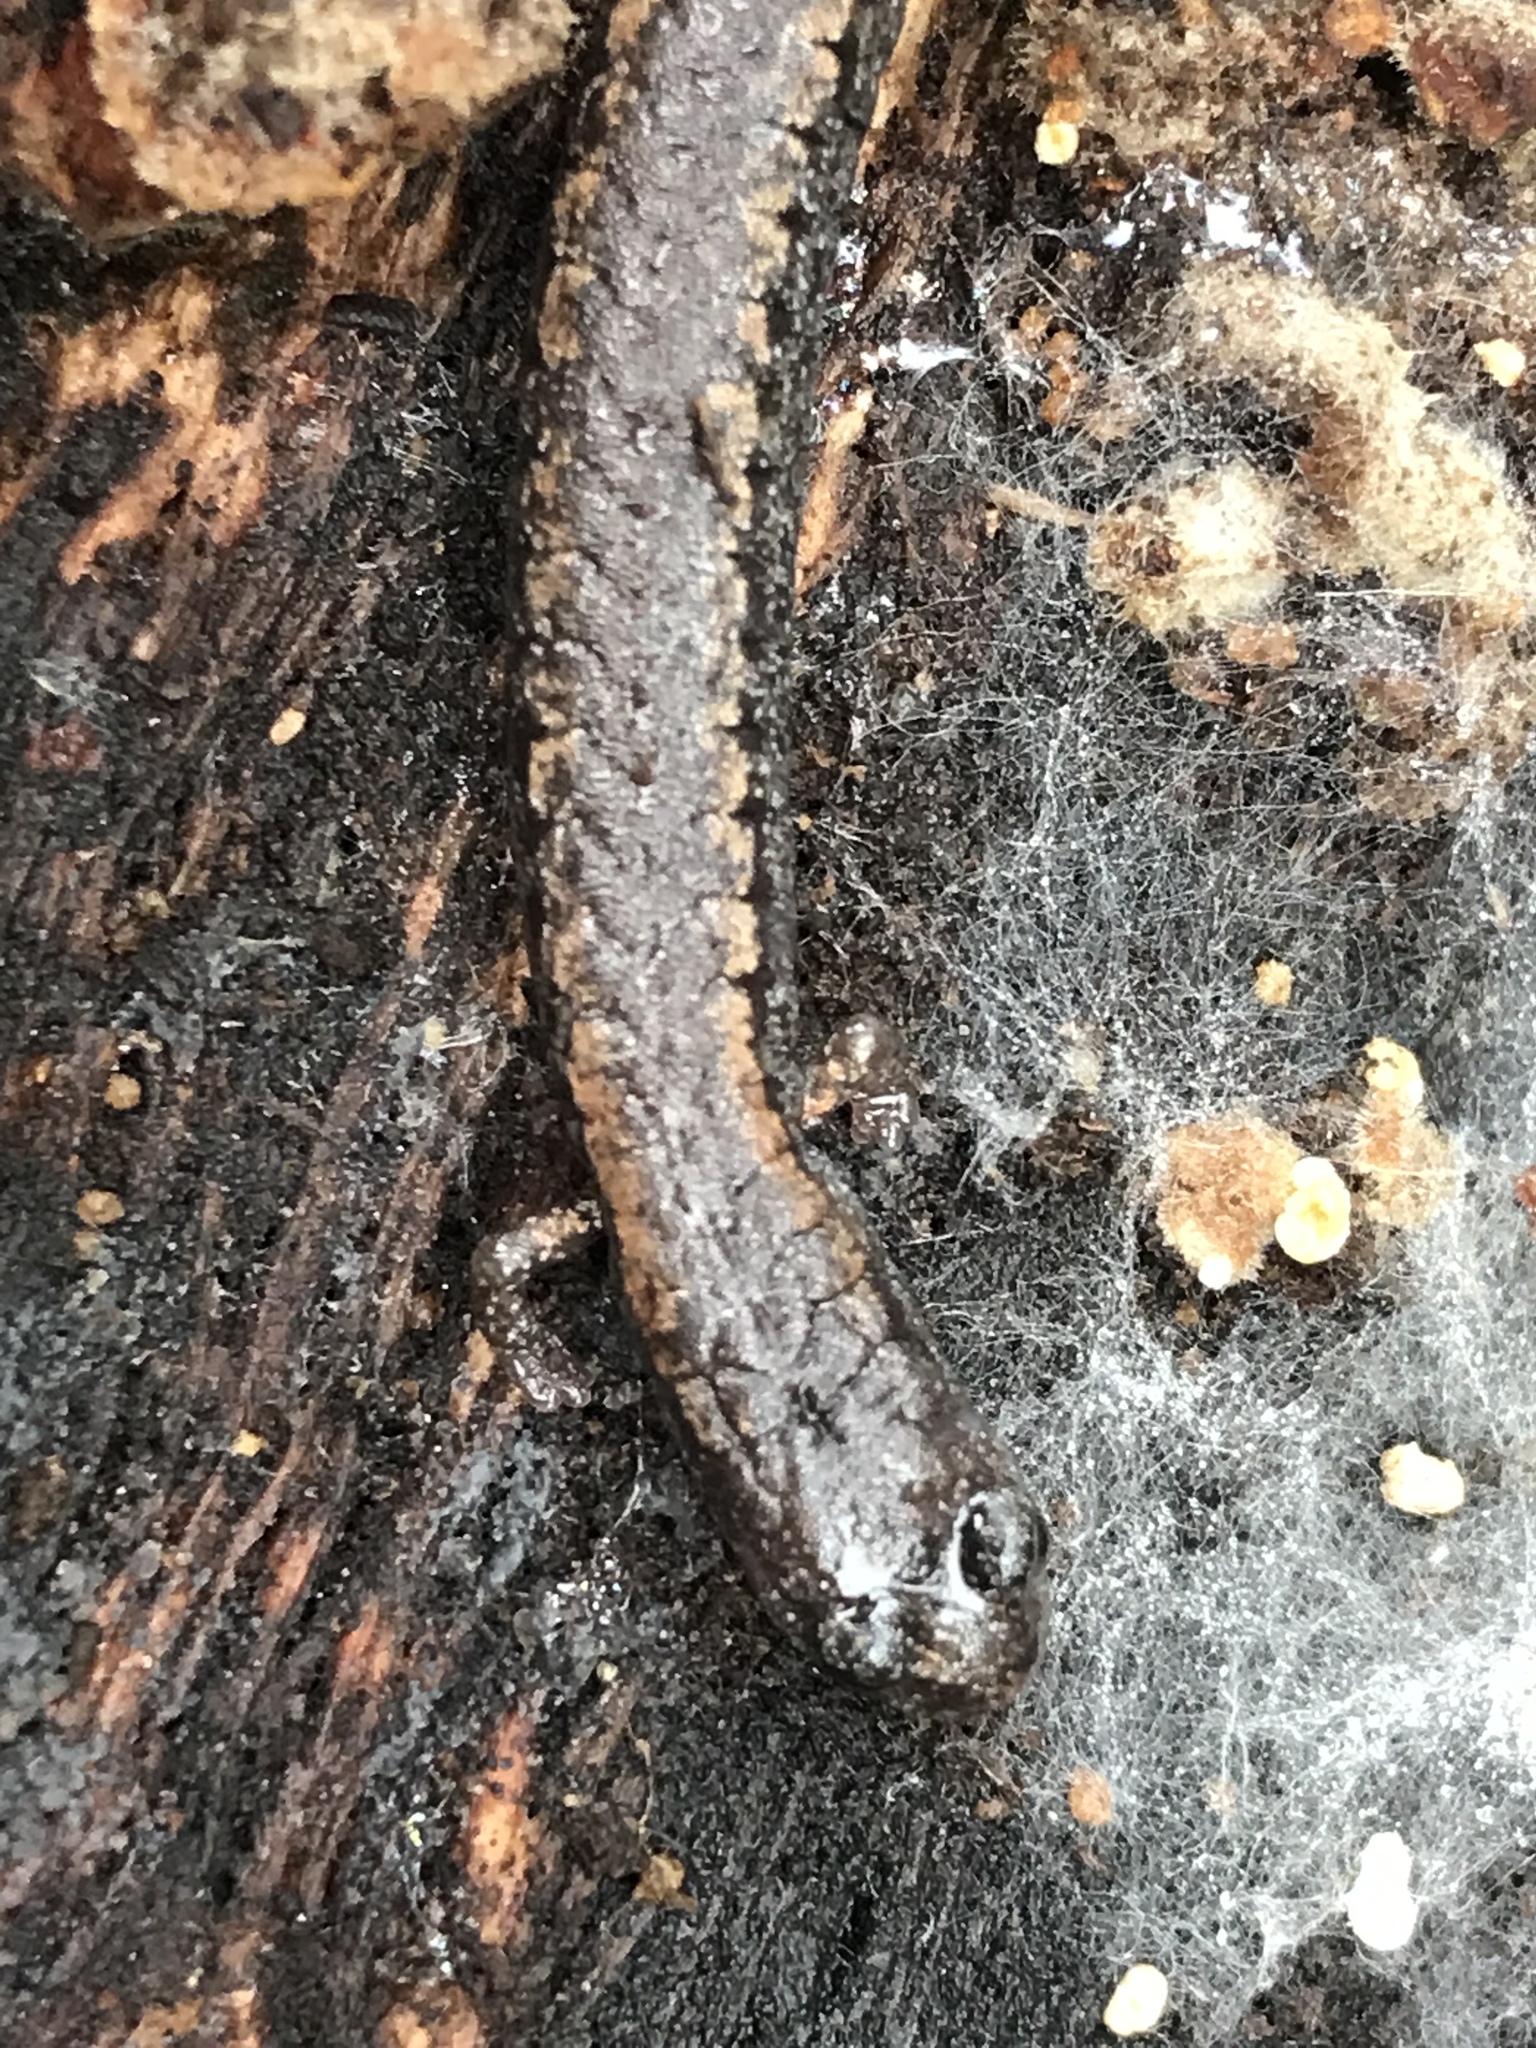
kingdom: Animalia
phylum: Chordata
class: Amphibia
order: Caudata
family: Plethodontidae
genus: Batrachoseps
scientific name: Batrachoseps attenuatus
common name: California slender salamander
